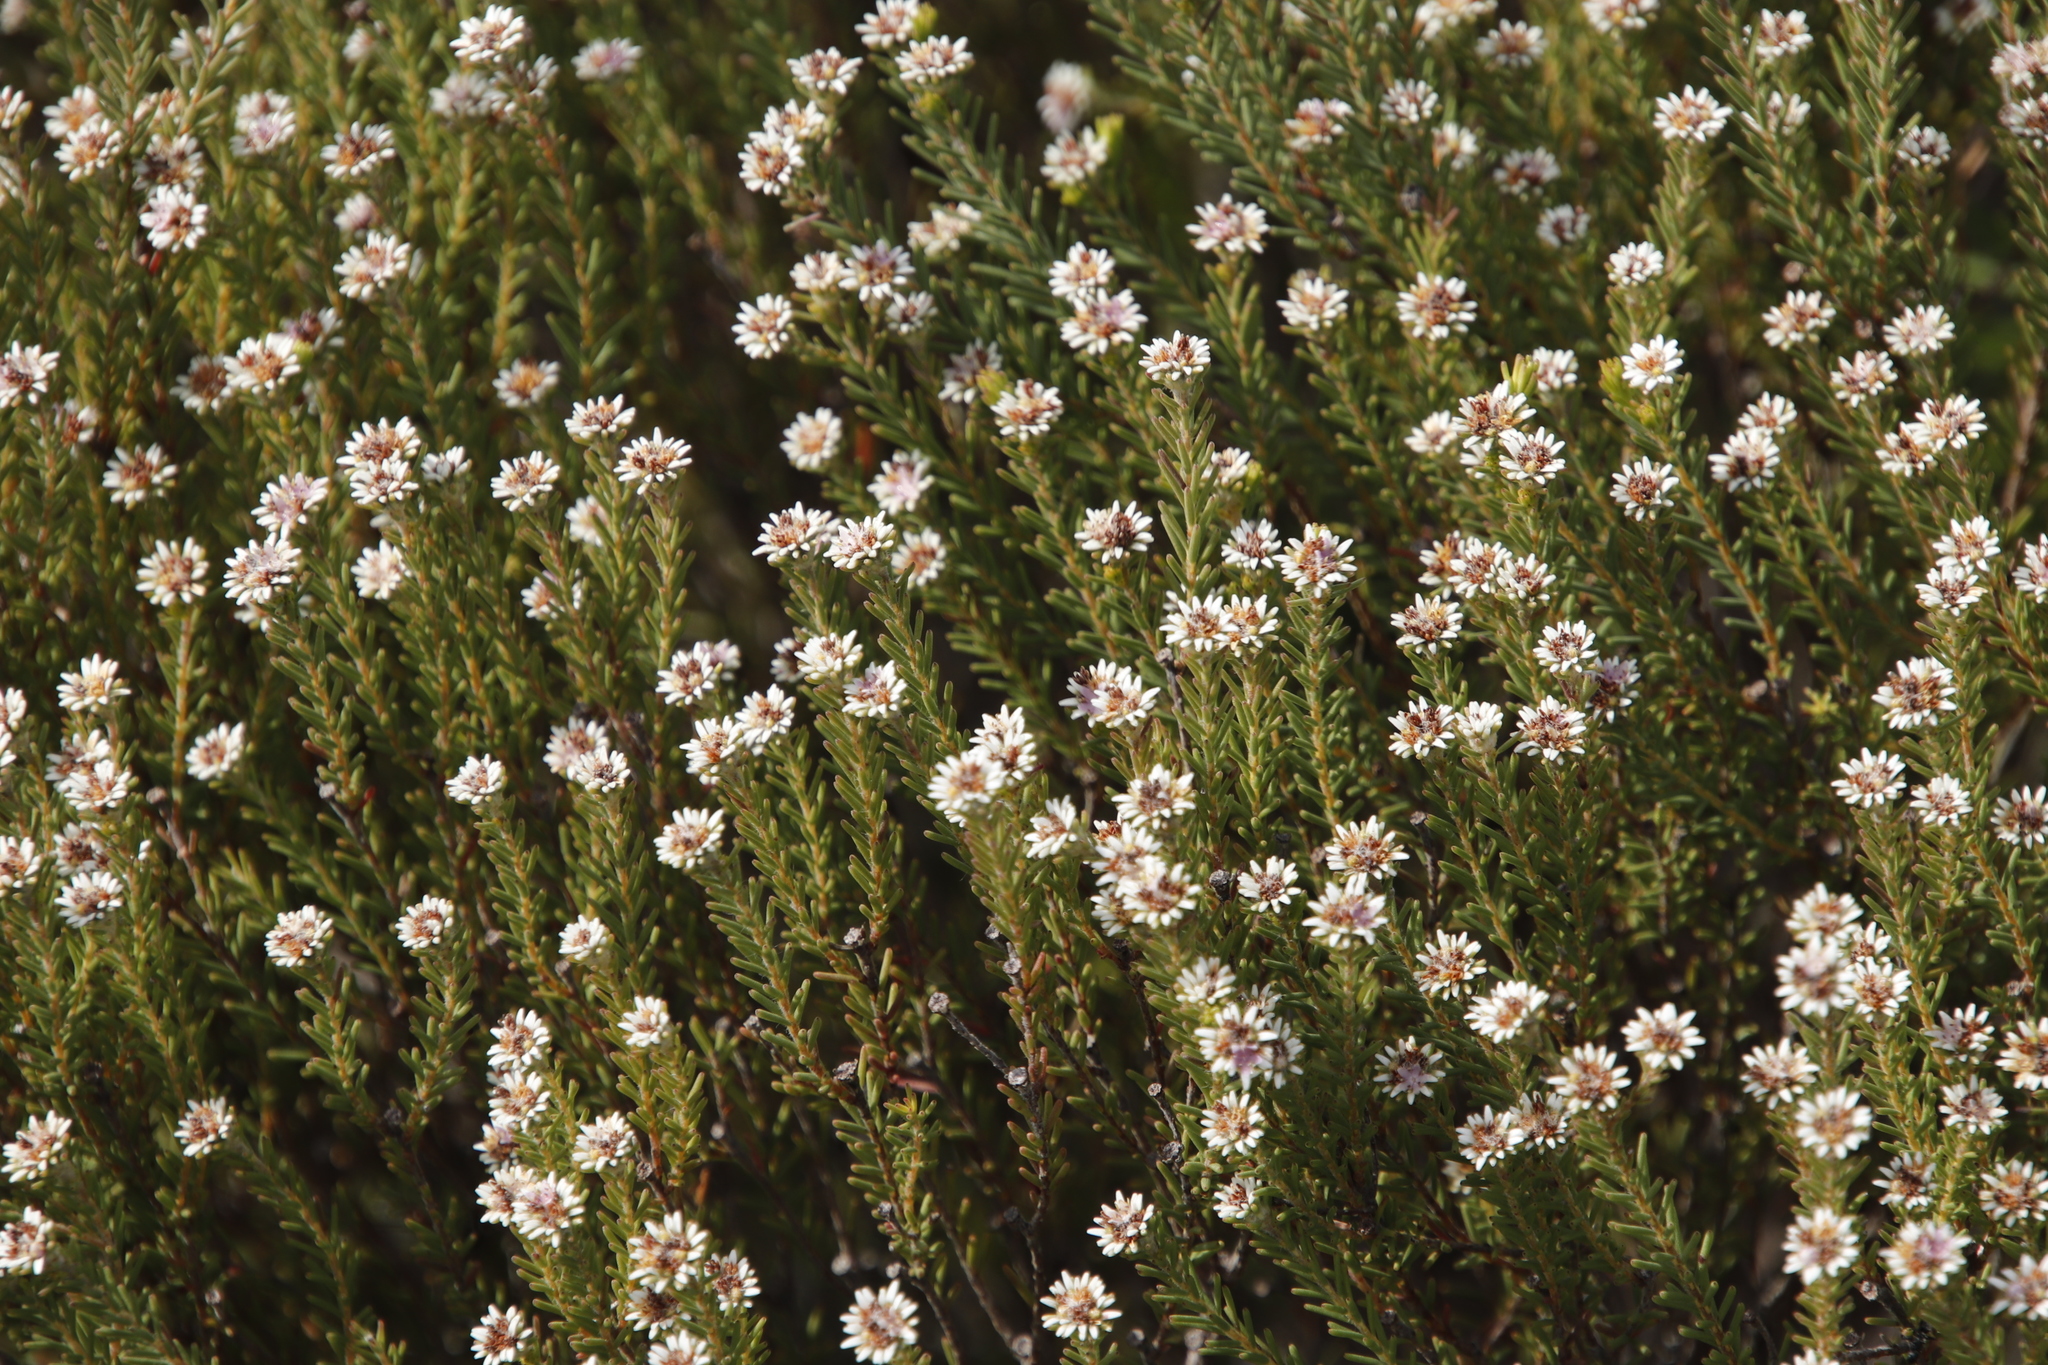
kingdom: Plantae
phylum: Tracheophyta
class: Magnoliopsida
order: Bruniales
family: Bruniaceae
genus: Staavia
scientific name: Staavia radiata
